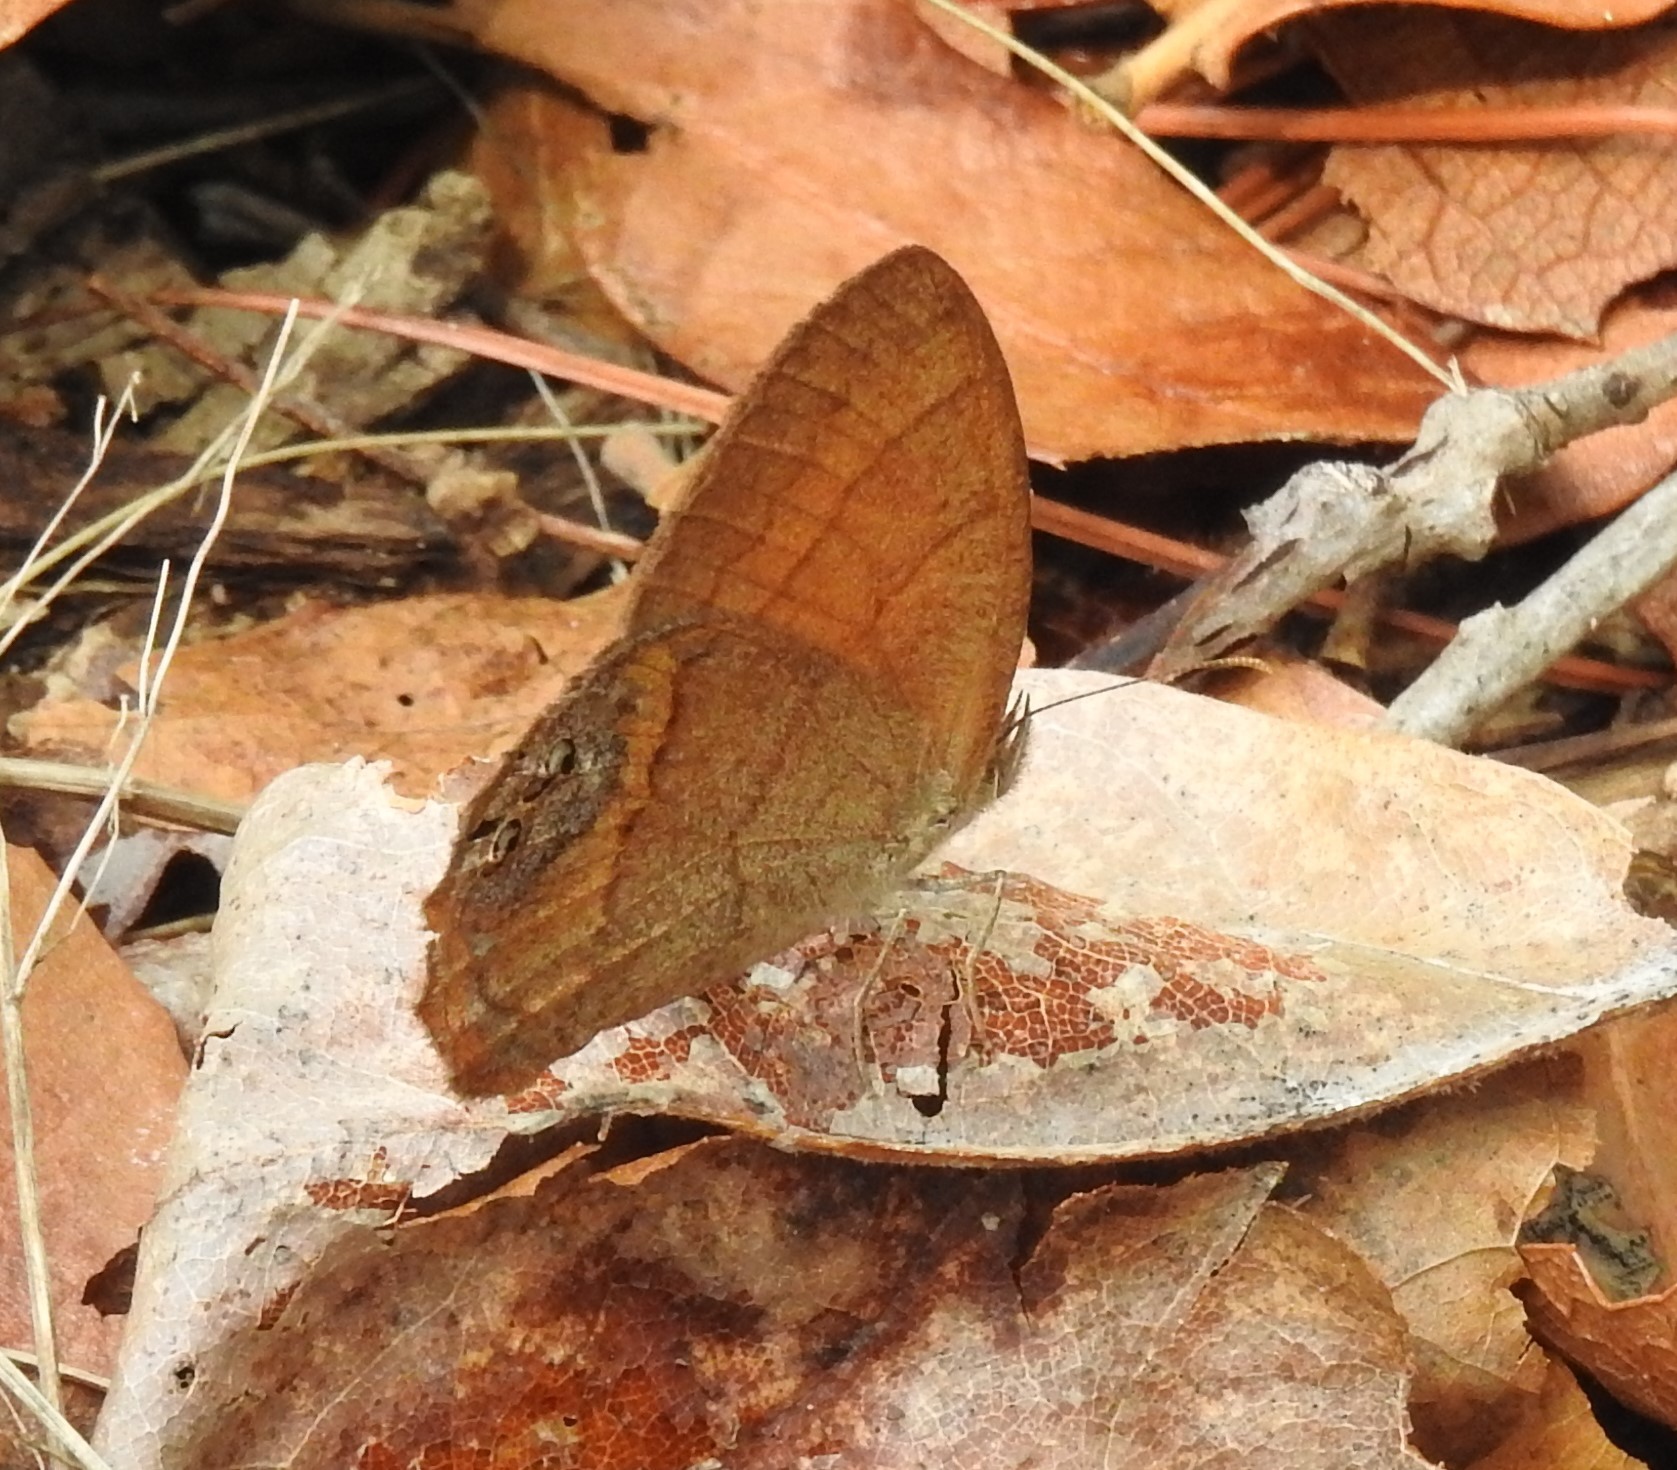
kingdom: Animalia
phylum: Arthropoda
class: Insecta
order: Lepidoptera
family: Nymphalidae
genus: Euptychia
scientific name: Euptychia pyracmon
